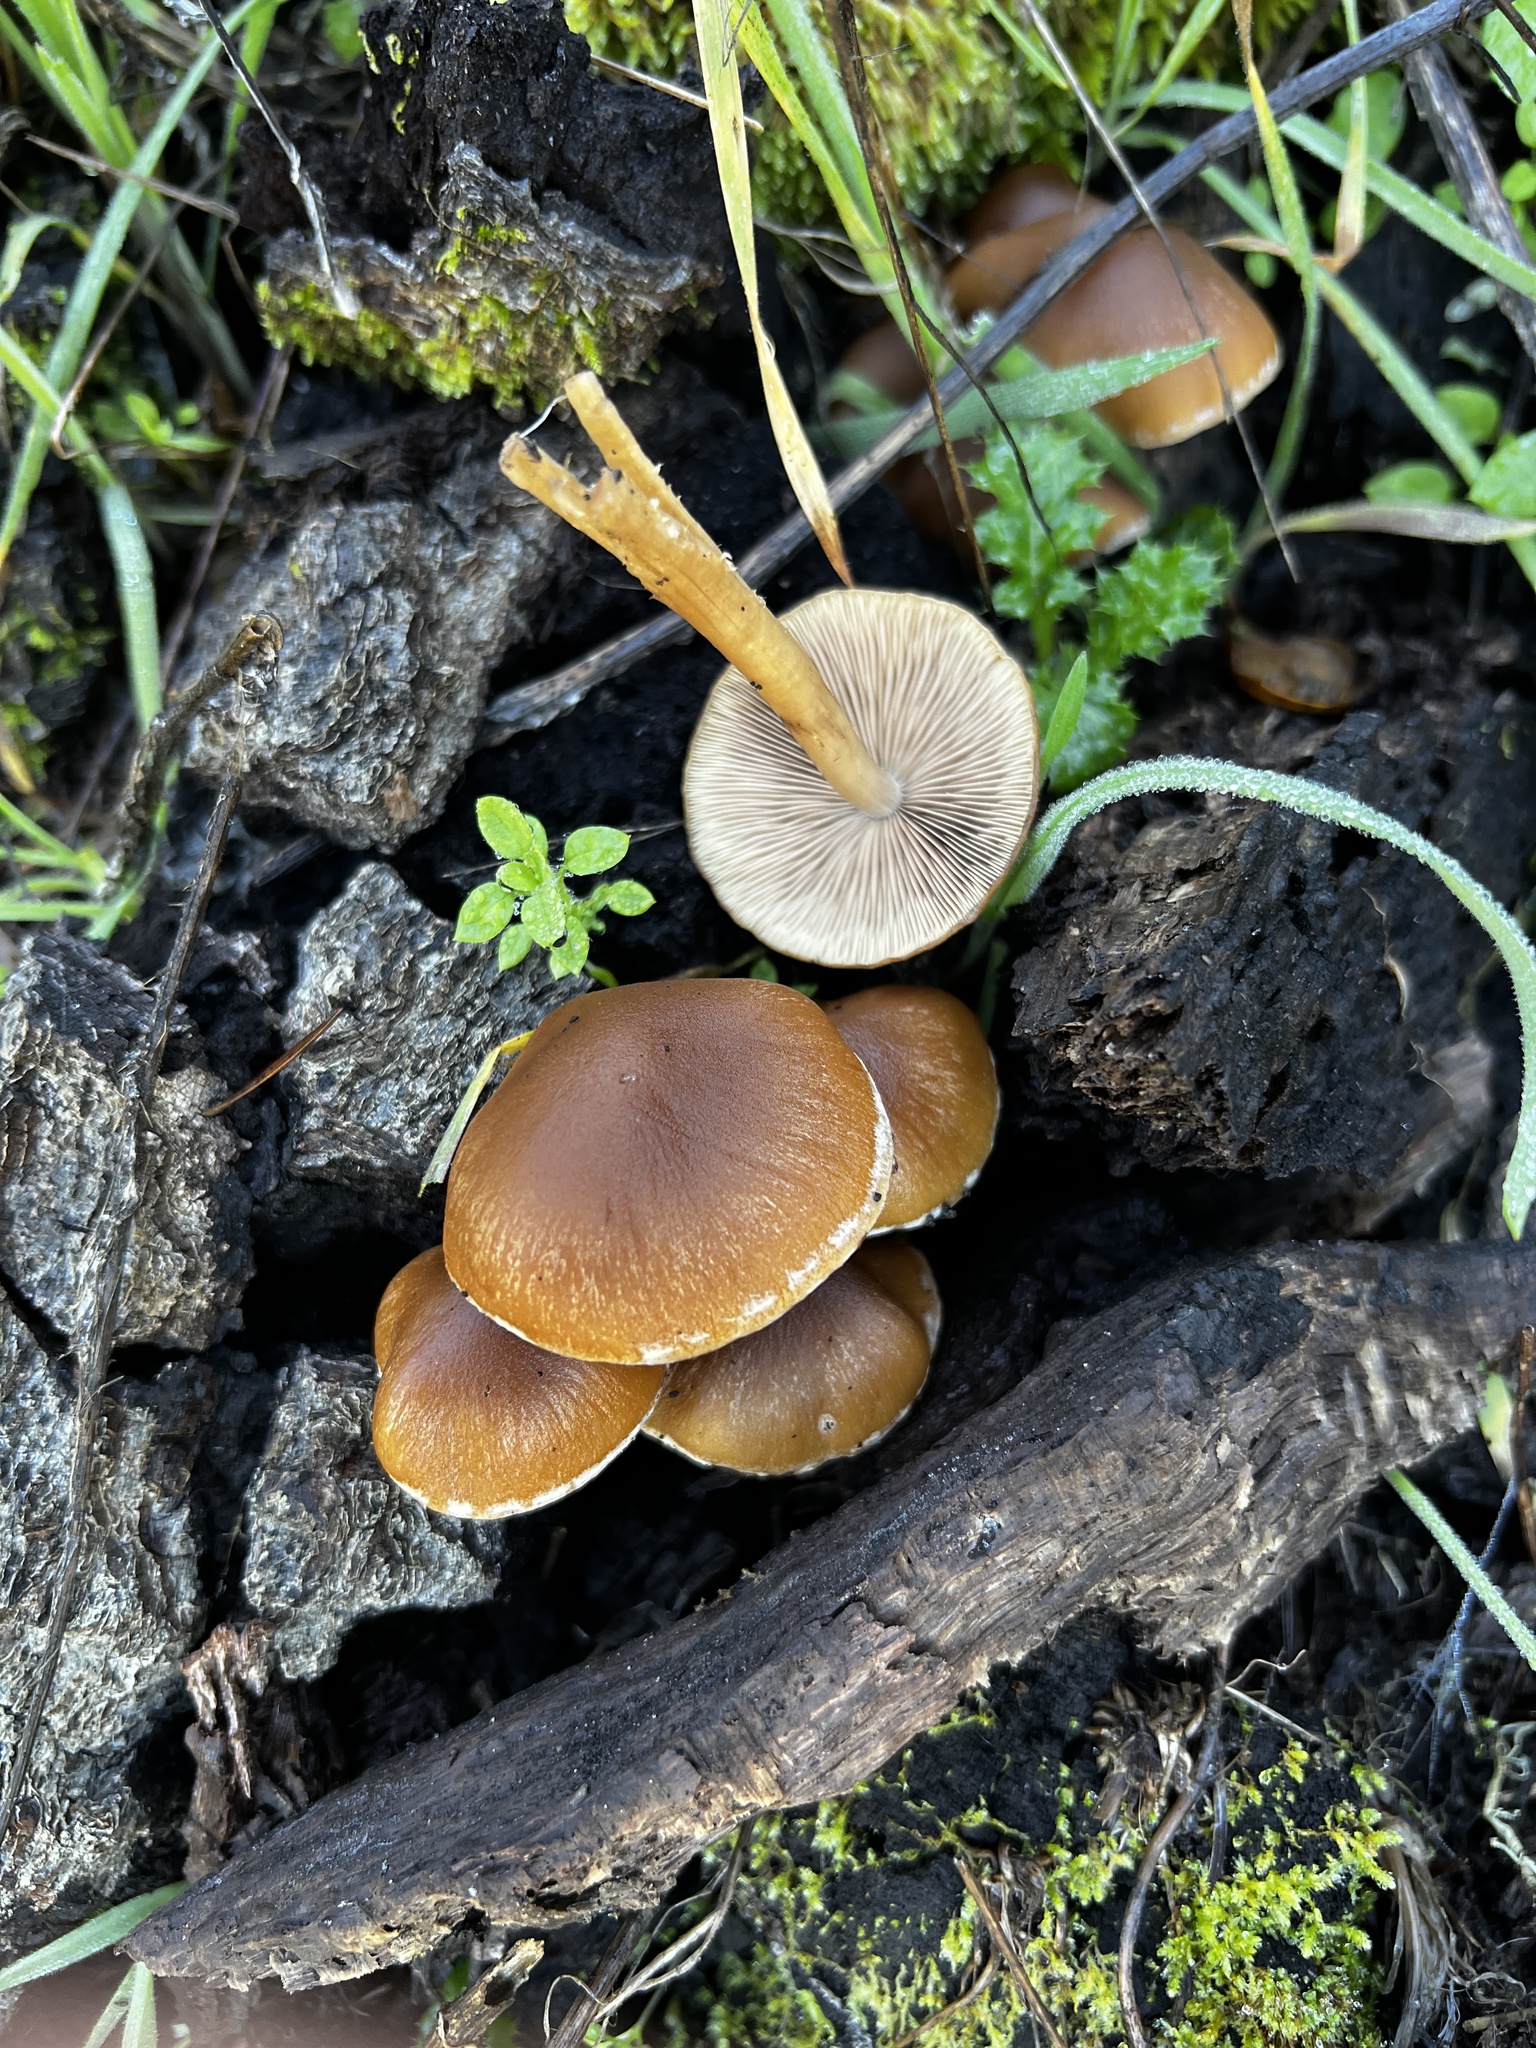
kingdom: Fungi
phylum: Basidiomycota
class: Agaricomycetes
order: Agaricales
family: Psathyrellaceae
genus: Psathyrella
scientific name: Psathyrella piluliformis
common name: Common stump brittlestem
